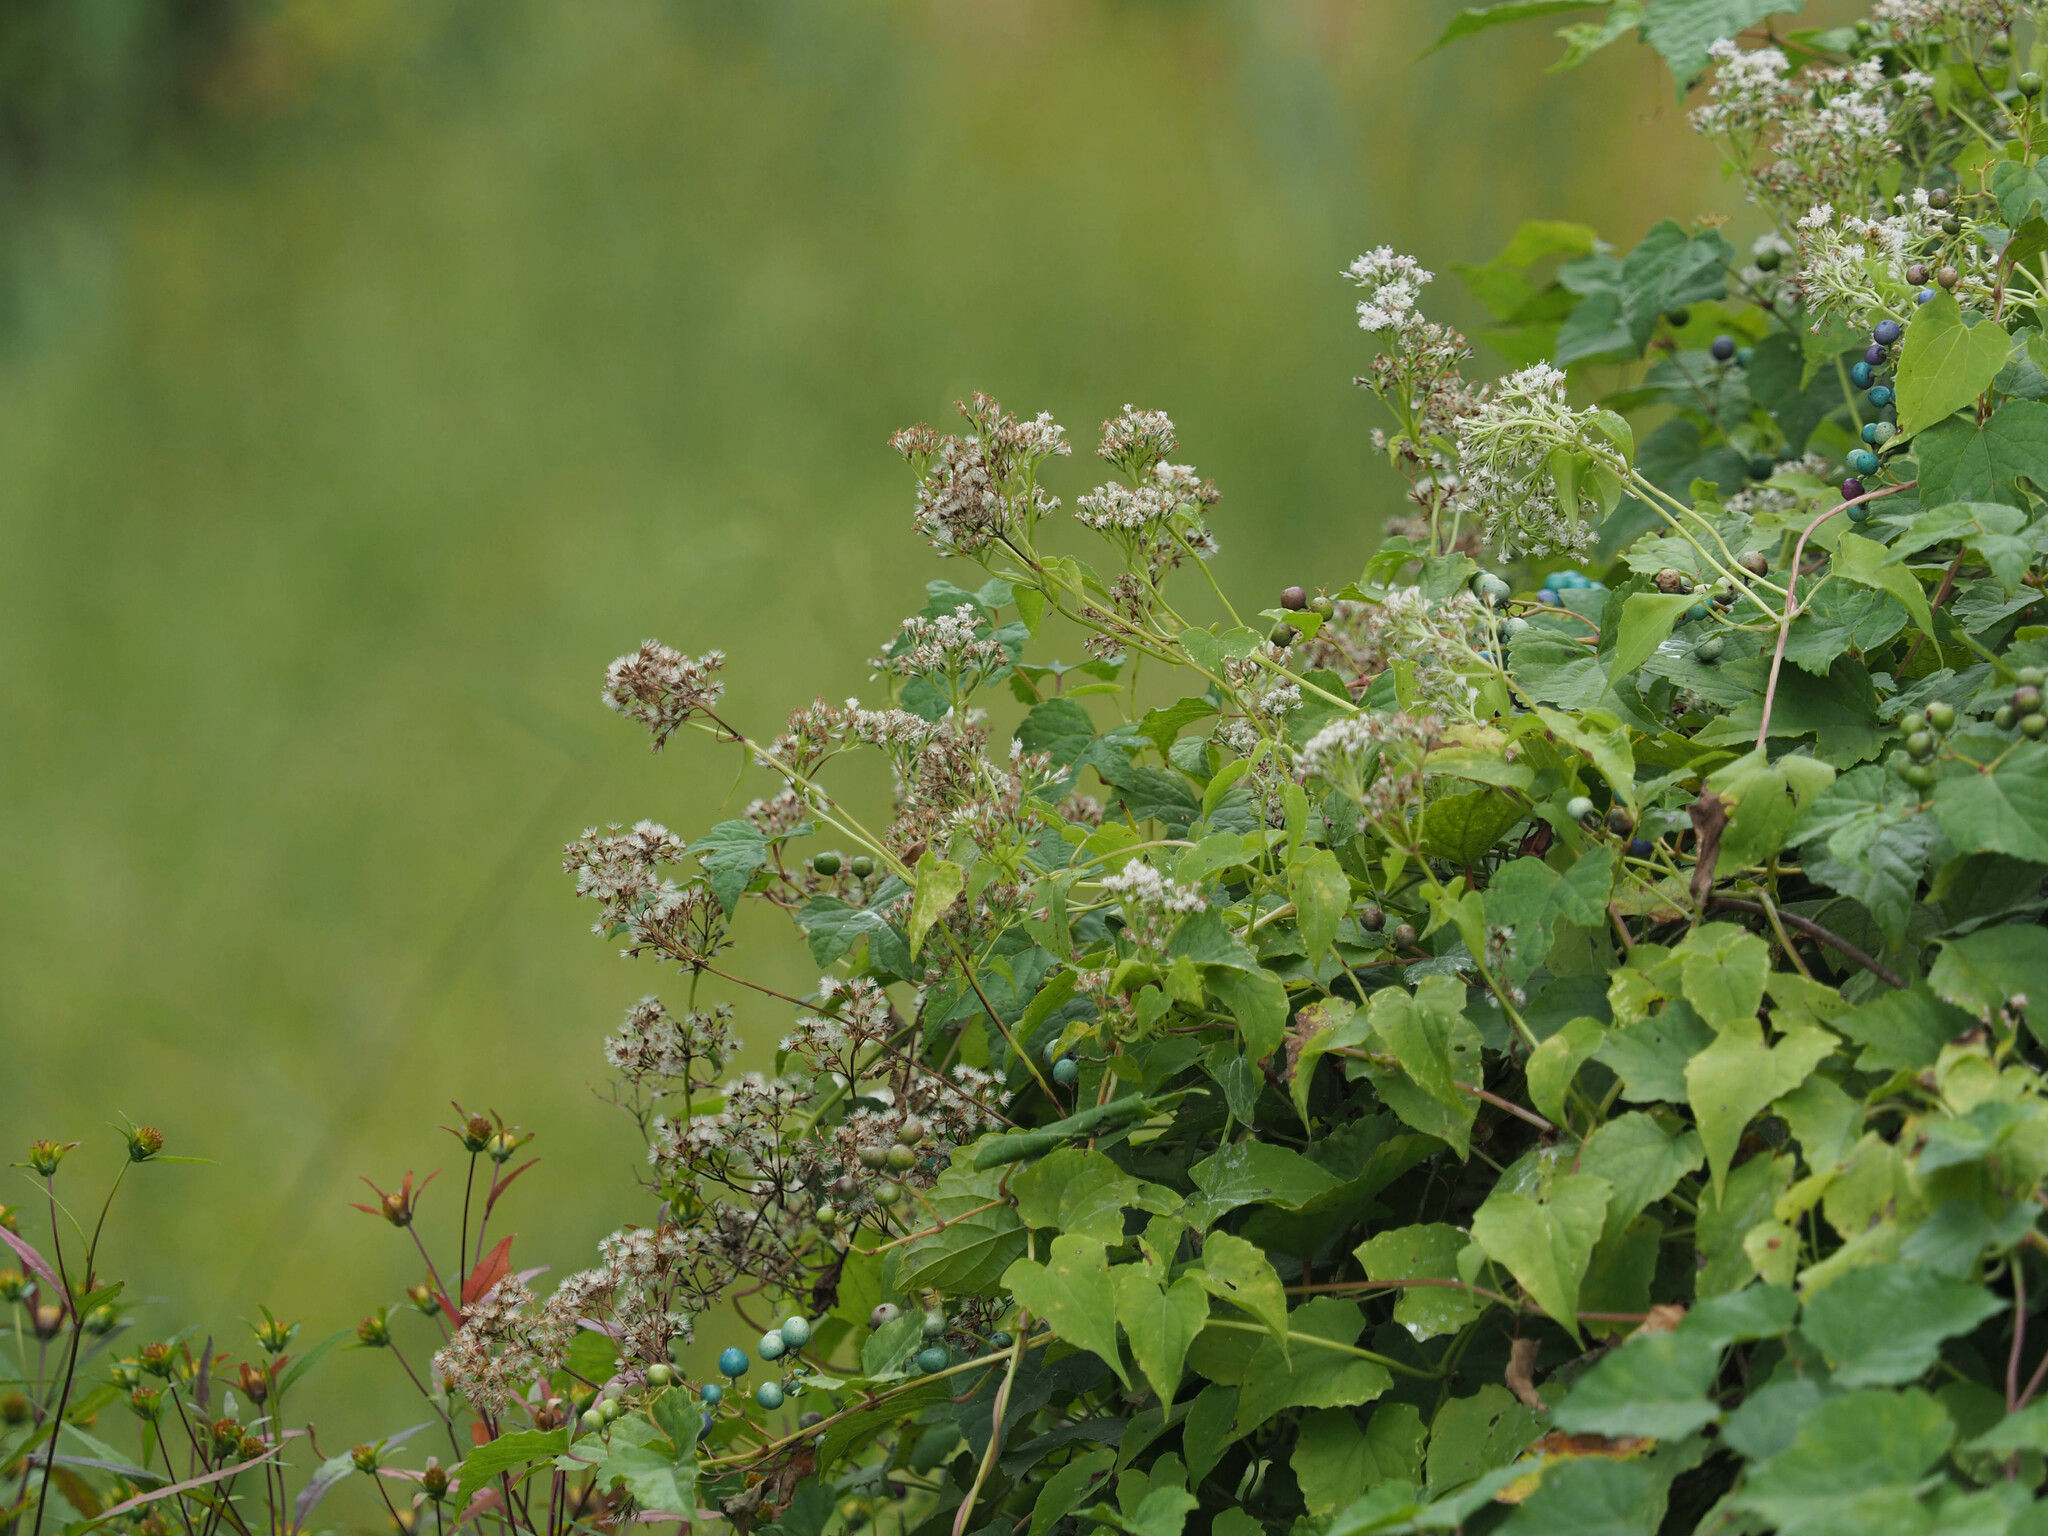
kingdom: Plantae
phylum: Tracheophyta
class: Magnoliopsida
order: Asterales
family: Asteraceae
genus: Mikania
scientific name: Mikania scandens
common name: Climbing hempvine
